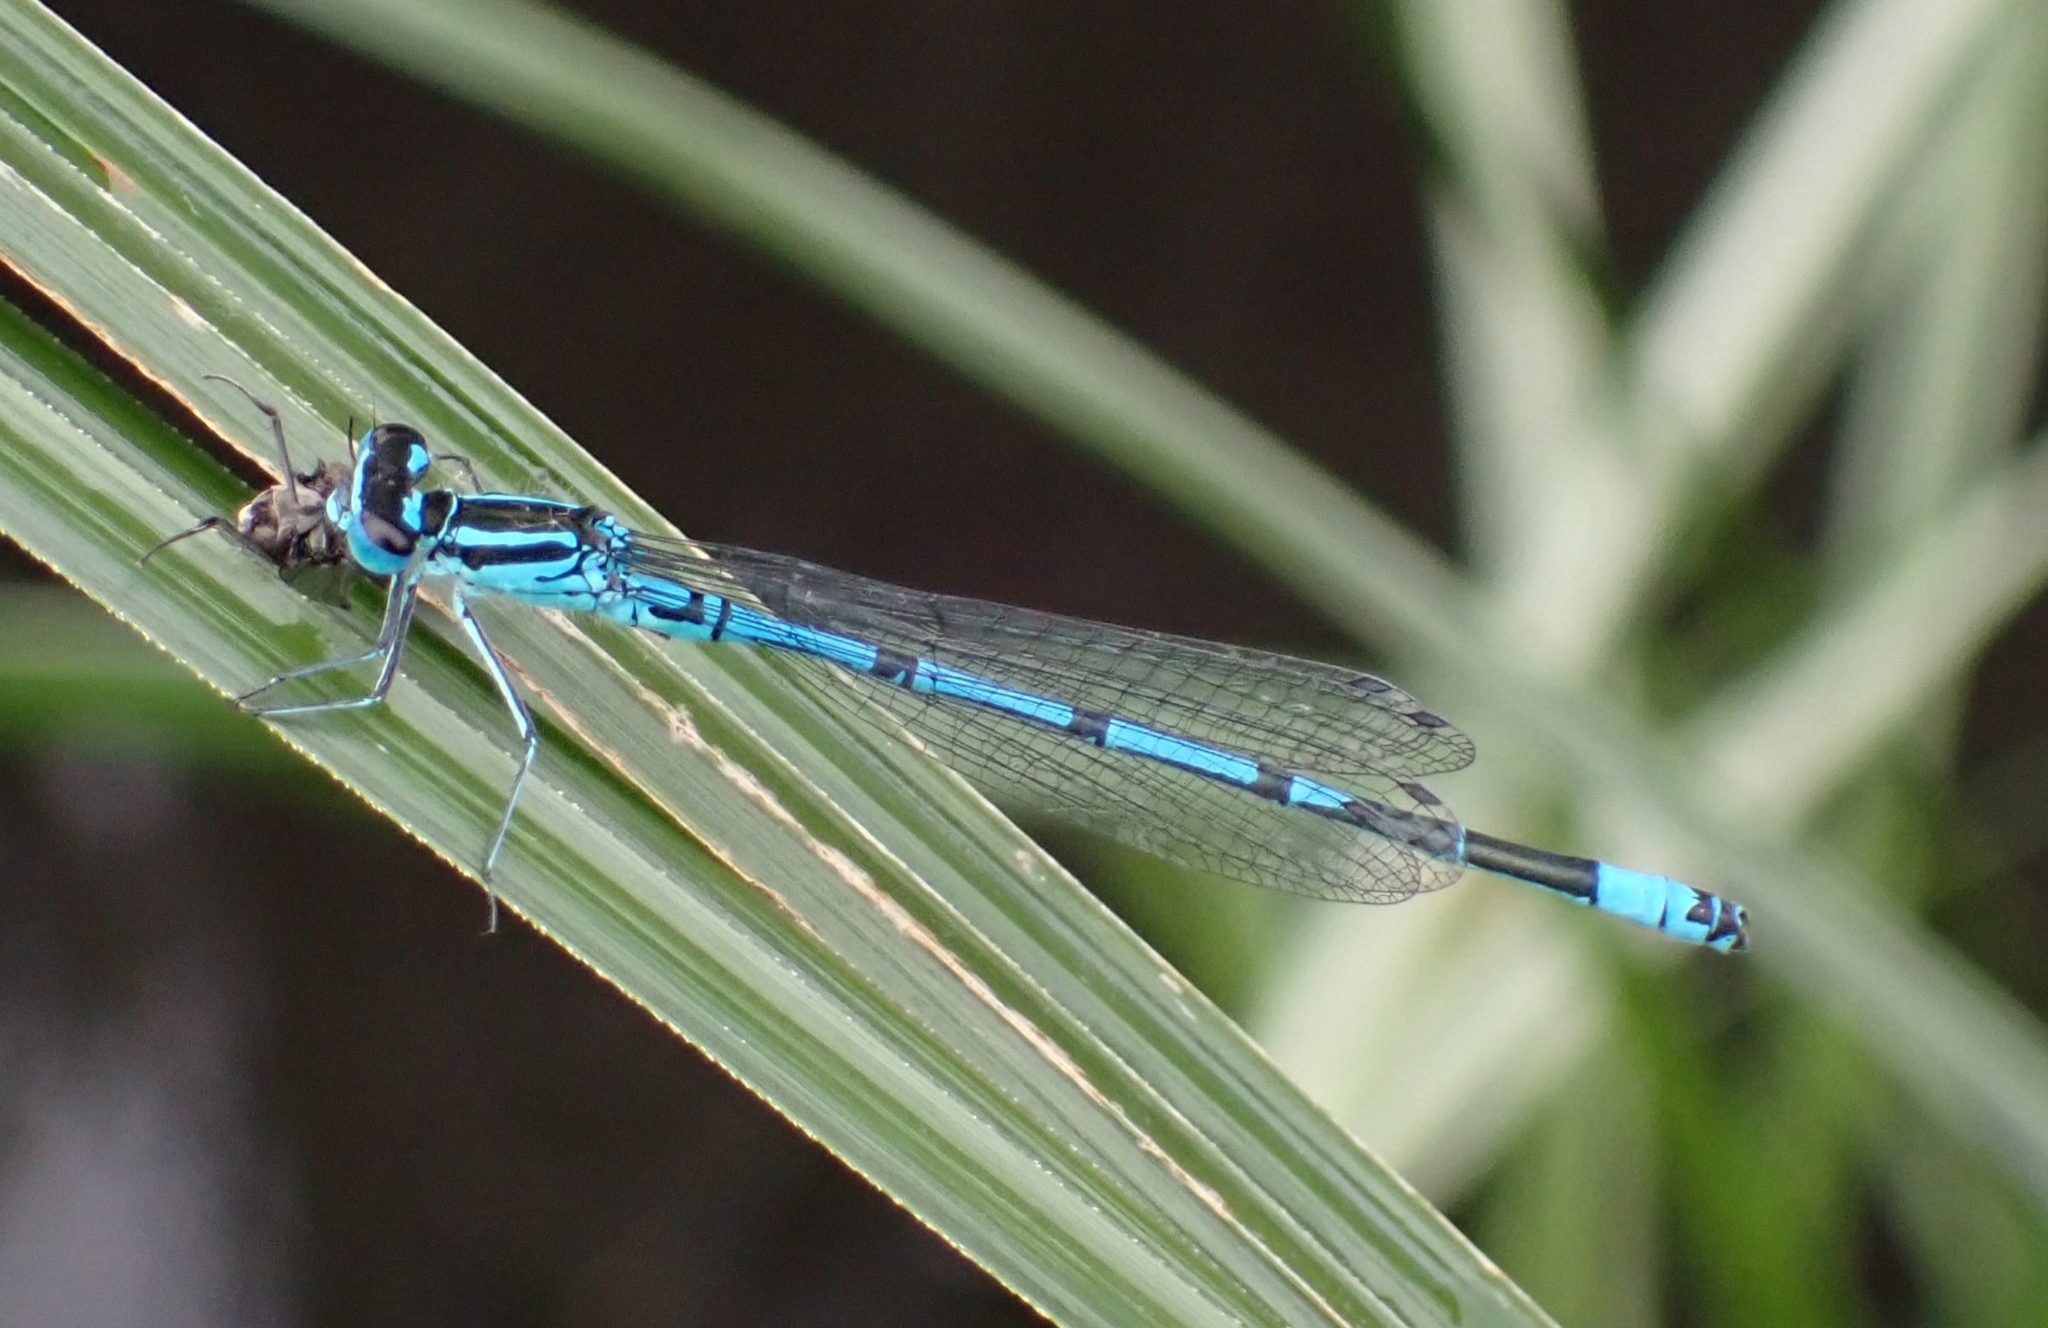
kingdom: Animalia
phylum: Arthropoda
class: Insecta
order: Odonata
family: Coenagrionidae
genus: Coenagrion
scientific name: Coenagrion puella
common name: Azure damselfly
